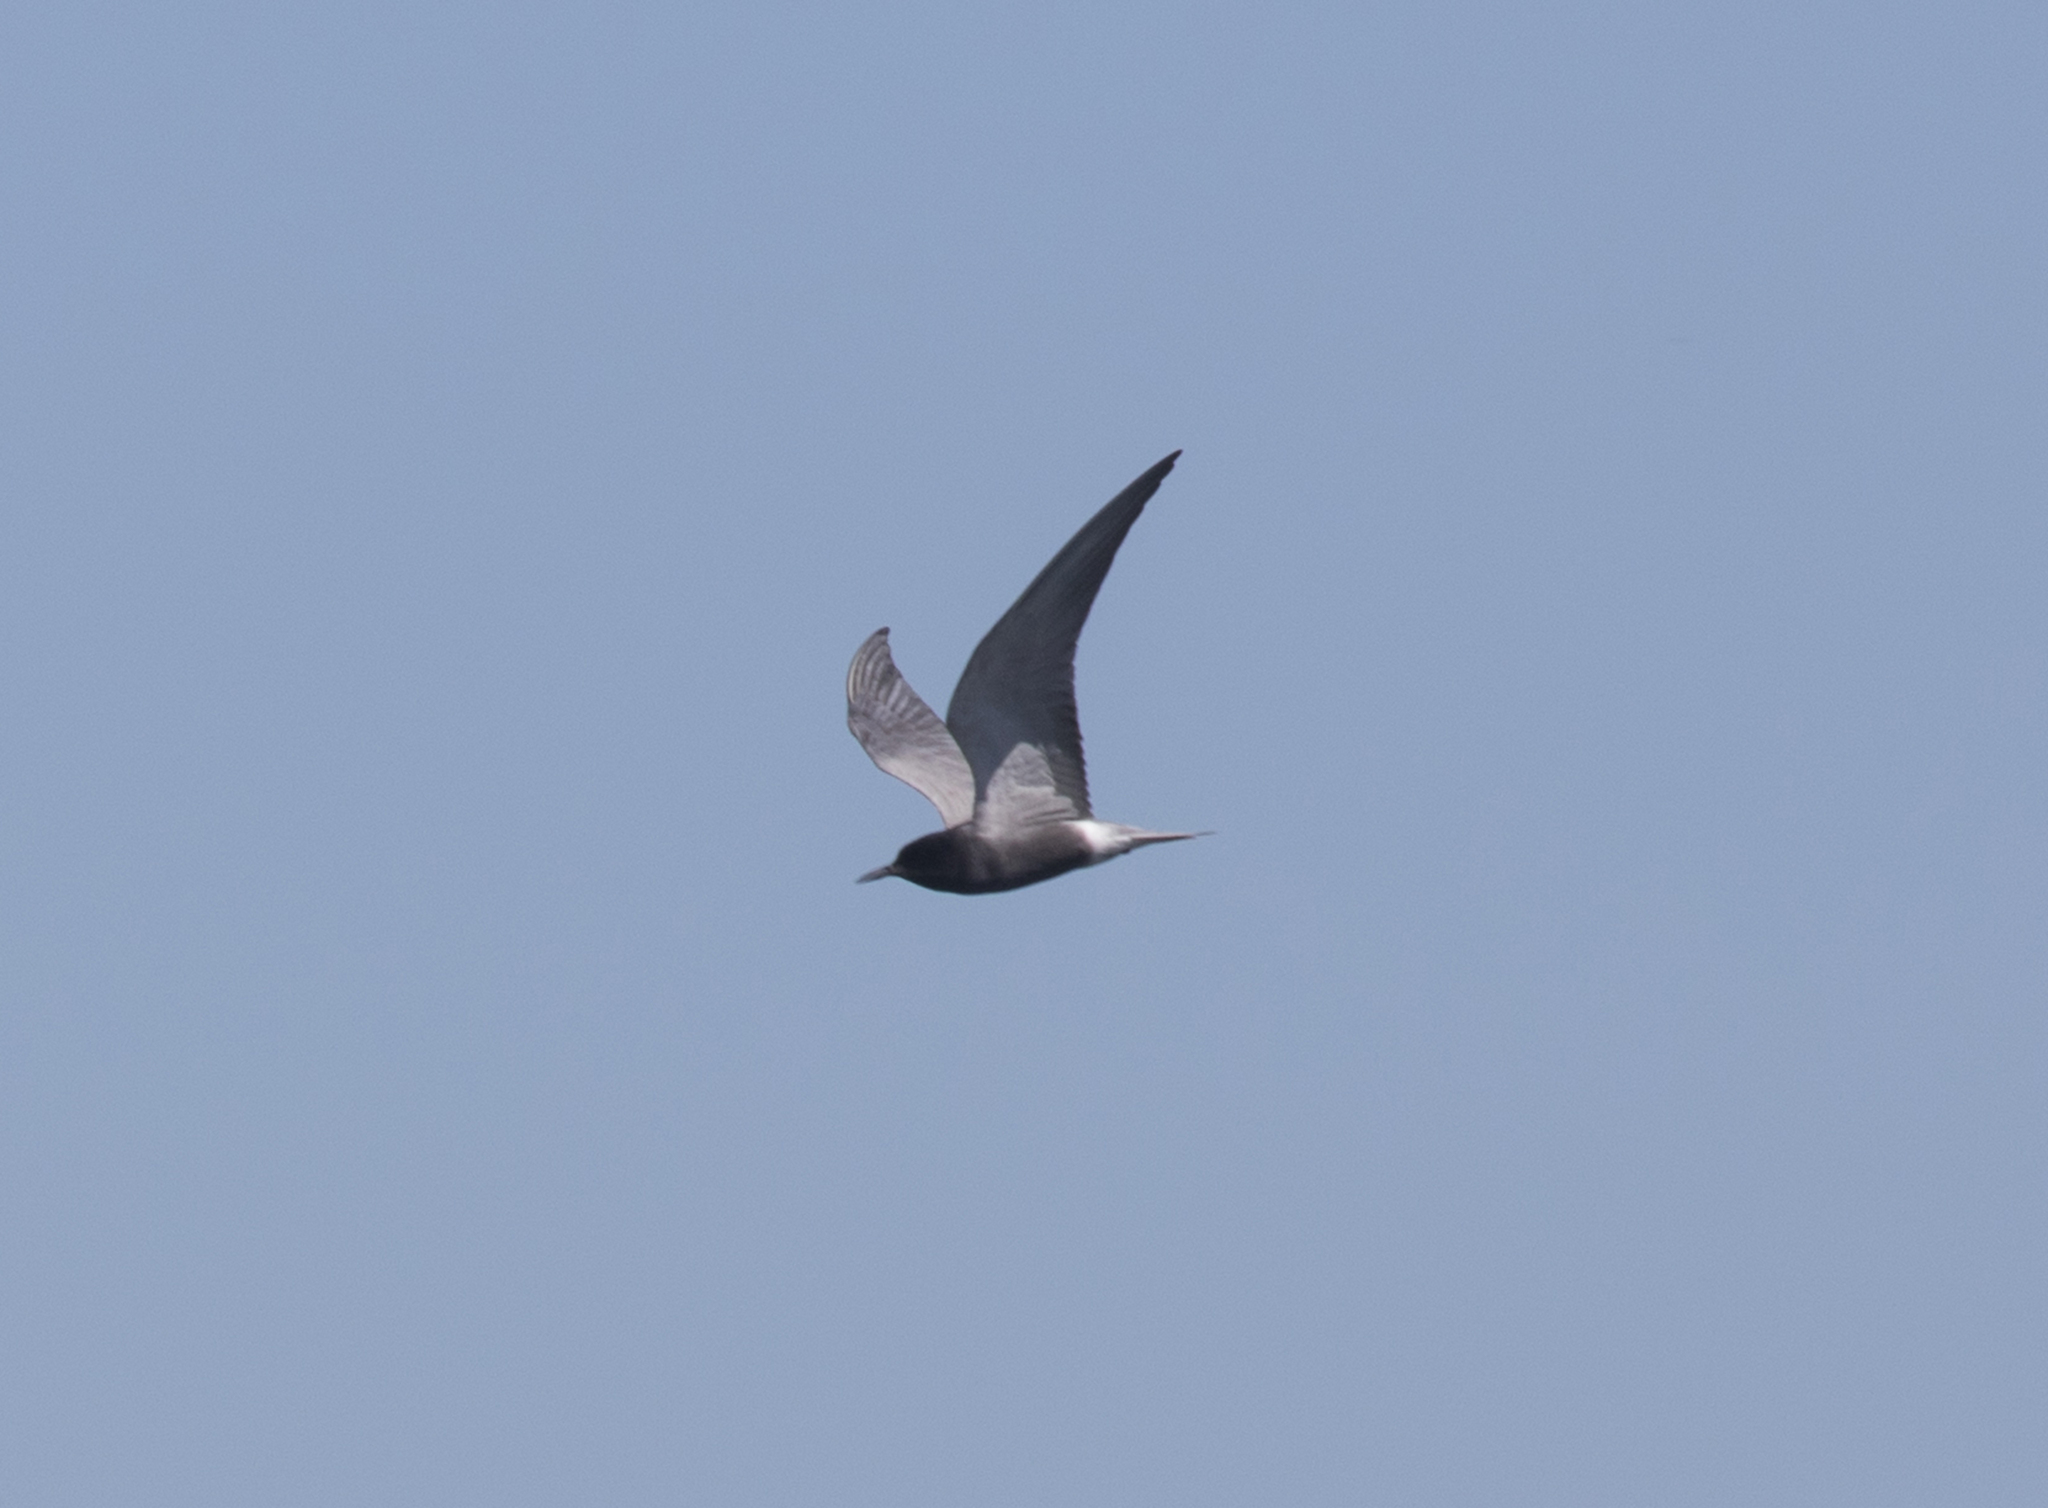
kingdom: Animalia
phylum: Chordata
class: Aves
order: Charadriiformes
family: Laridae
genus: Chlidonias
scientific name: Chlidonias niger
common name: Black tern
